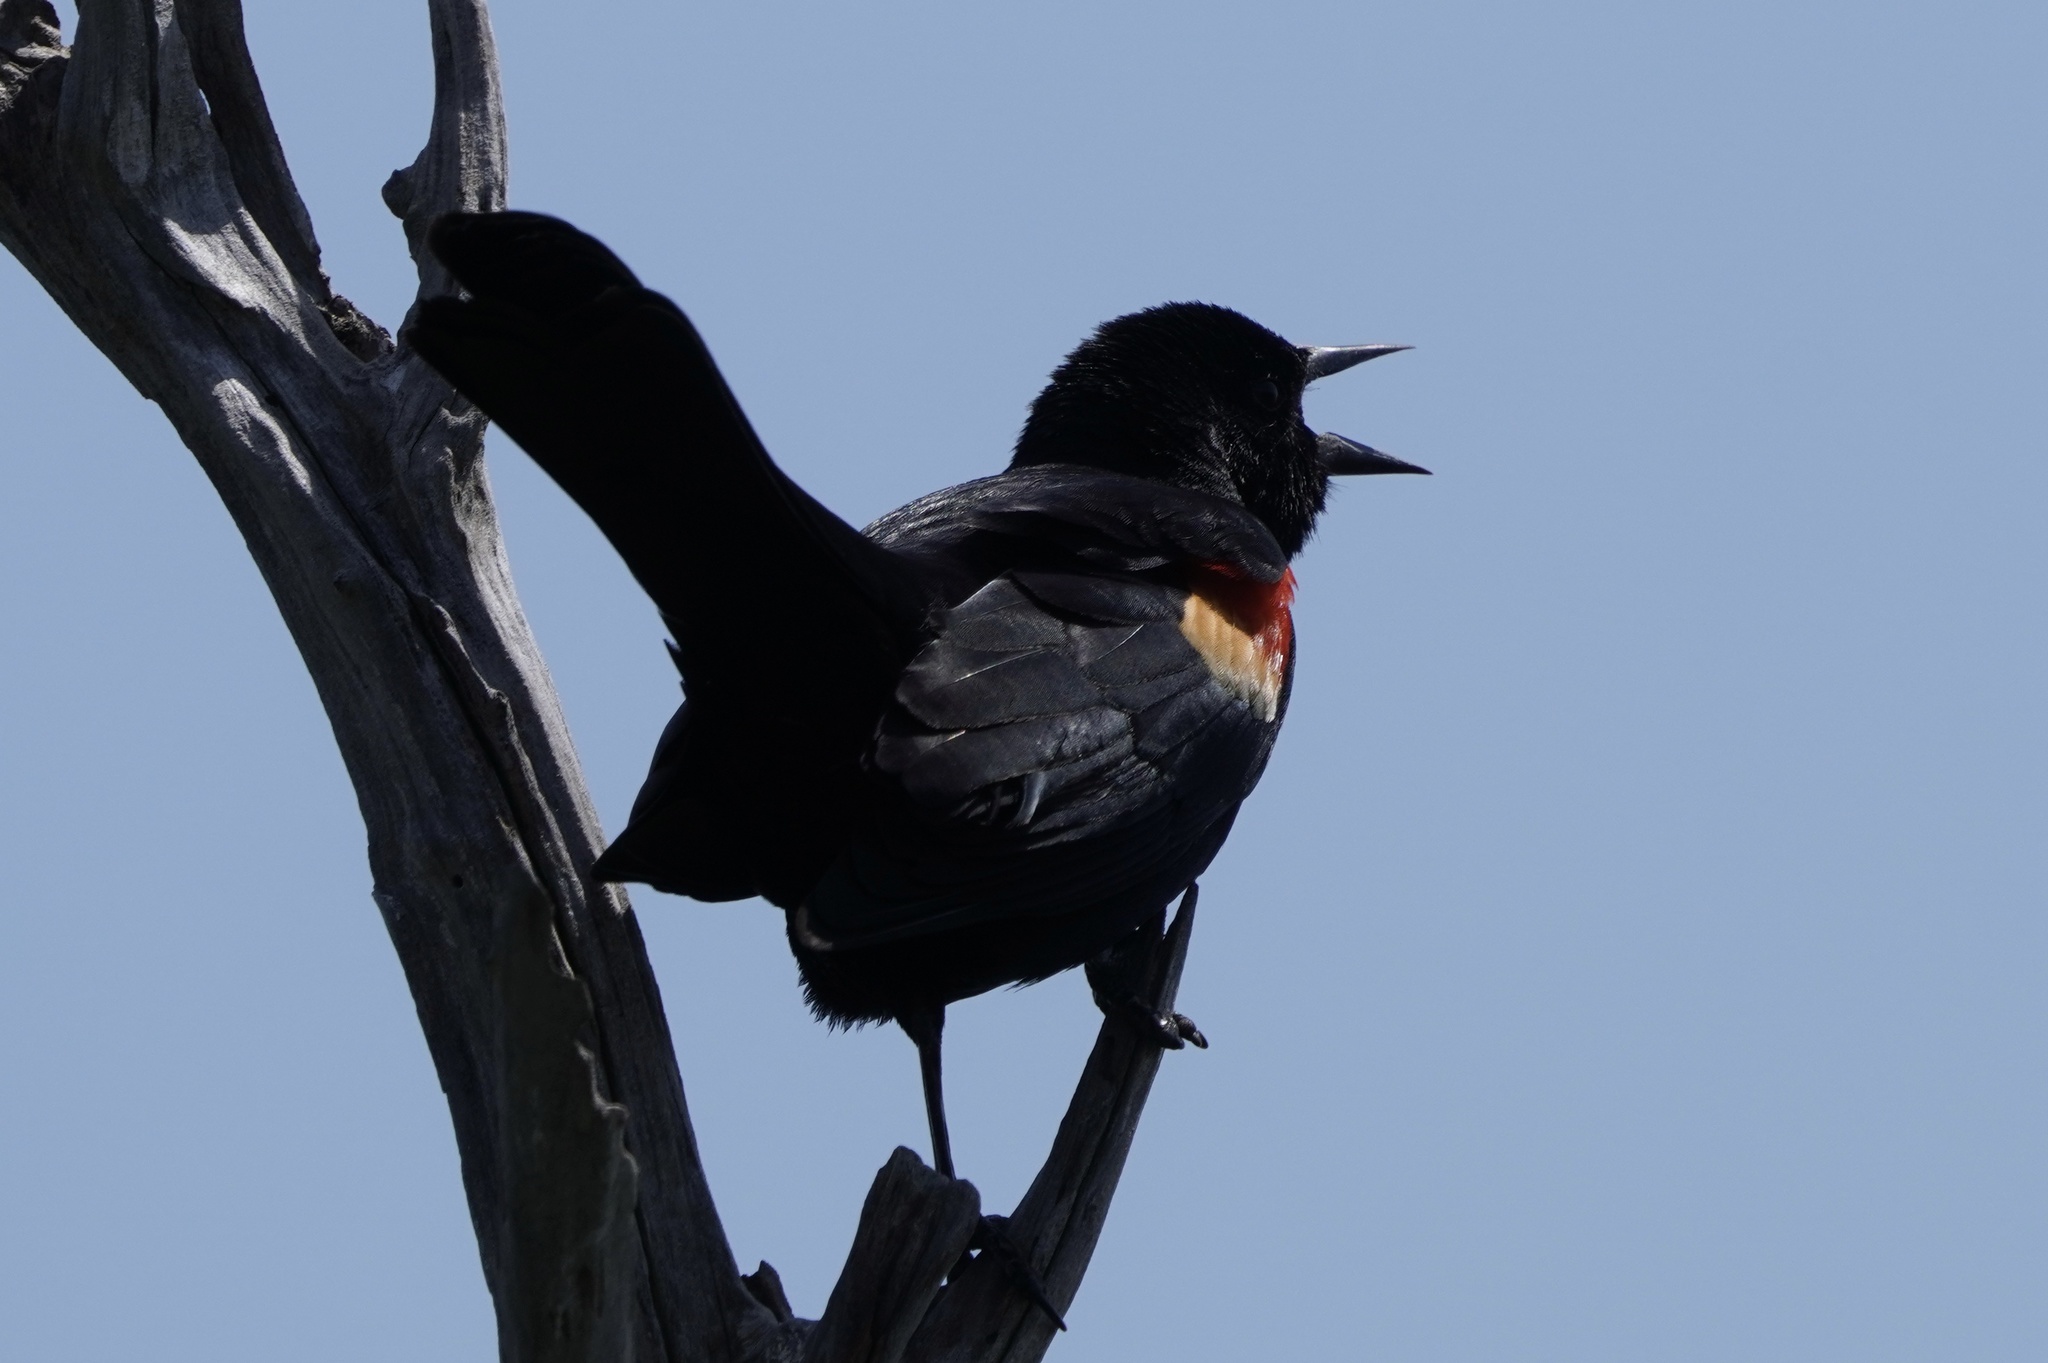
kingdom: Animalia
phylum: Chordata
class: Aves
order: Passeriformes
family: Icteridae
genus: Agelaius
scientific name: Agelaius phoeniceus
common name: Red-winged blackbird
